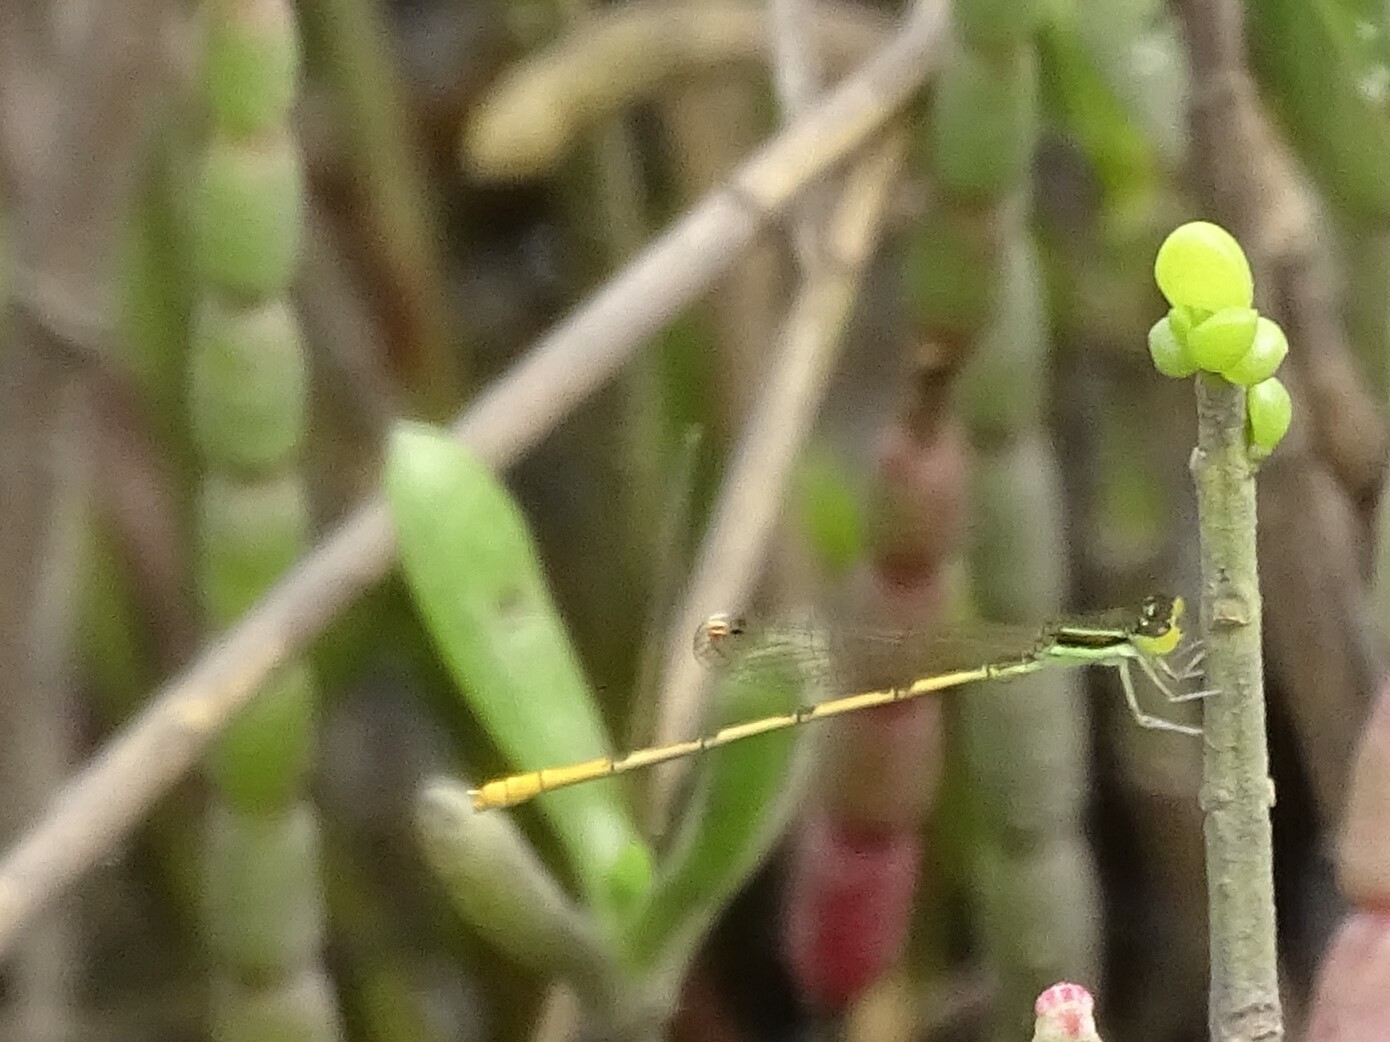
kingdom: Animalia
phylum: Arthropoda
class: Insecta
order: Odonata
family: Coenagrionidae
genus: Ischnura
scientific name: Ischnura hastata
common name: Citrine forktail
